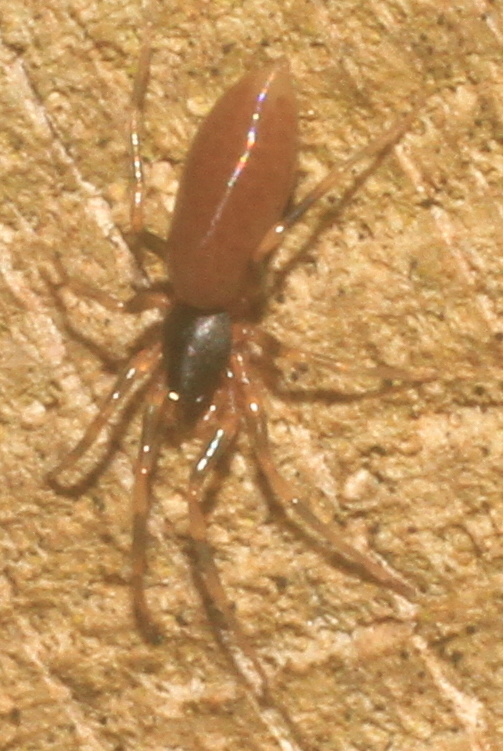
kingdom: Animalia
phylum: Arthropoda
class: Arachnida
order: Araneae
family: Dysderidae
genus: Harpactea
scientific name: Harpactea hombergi
